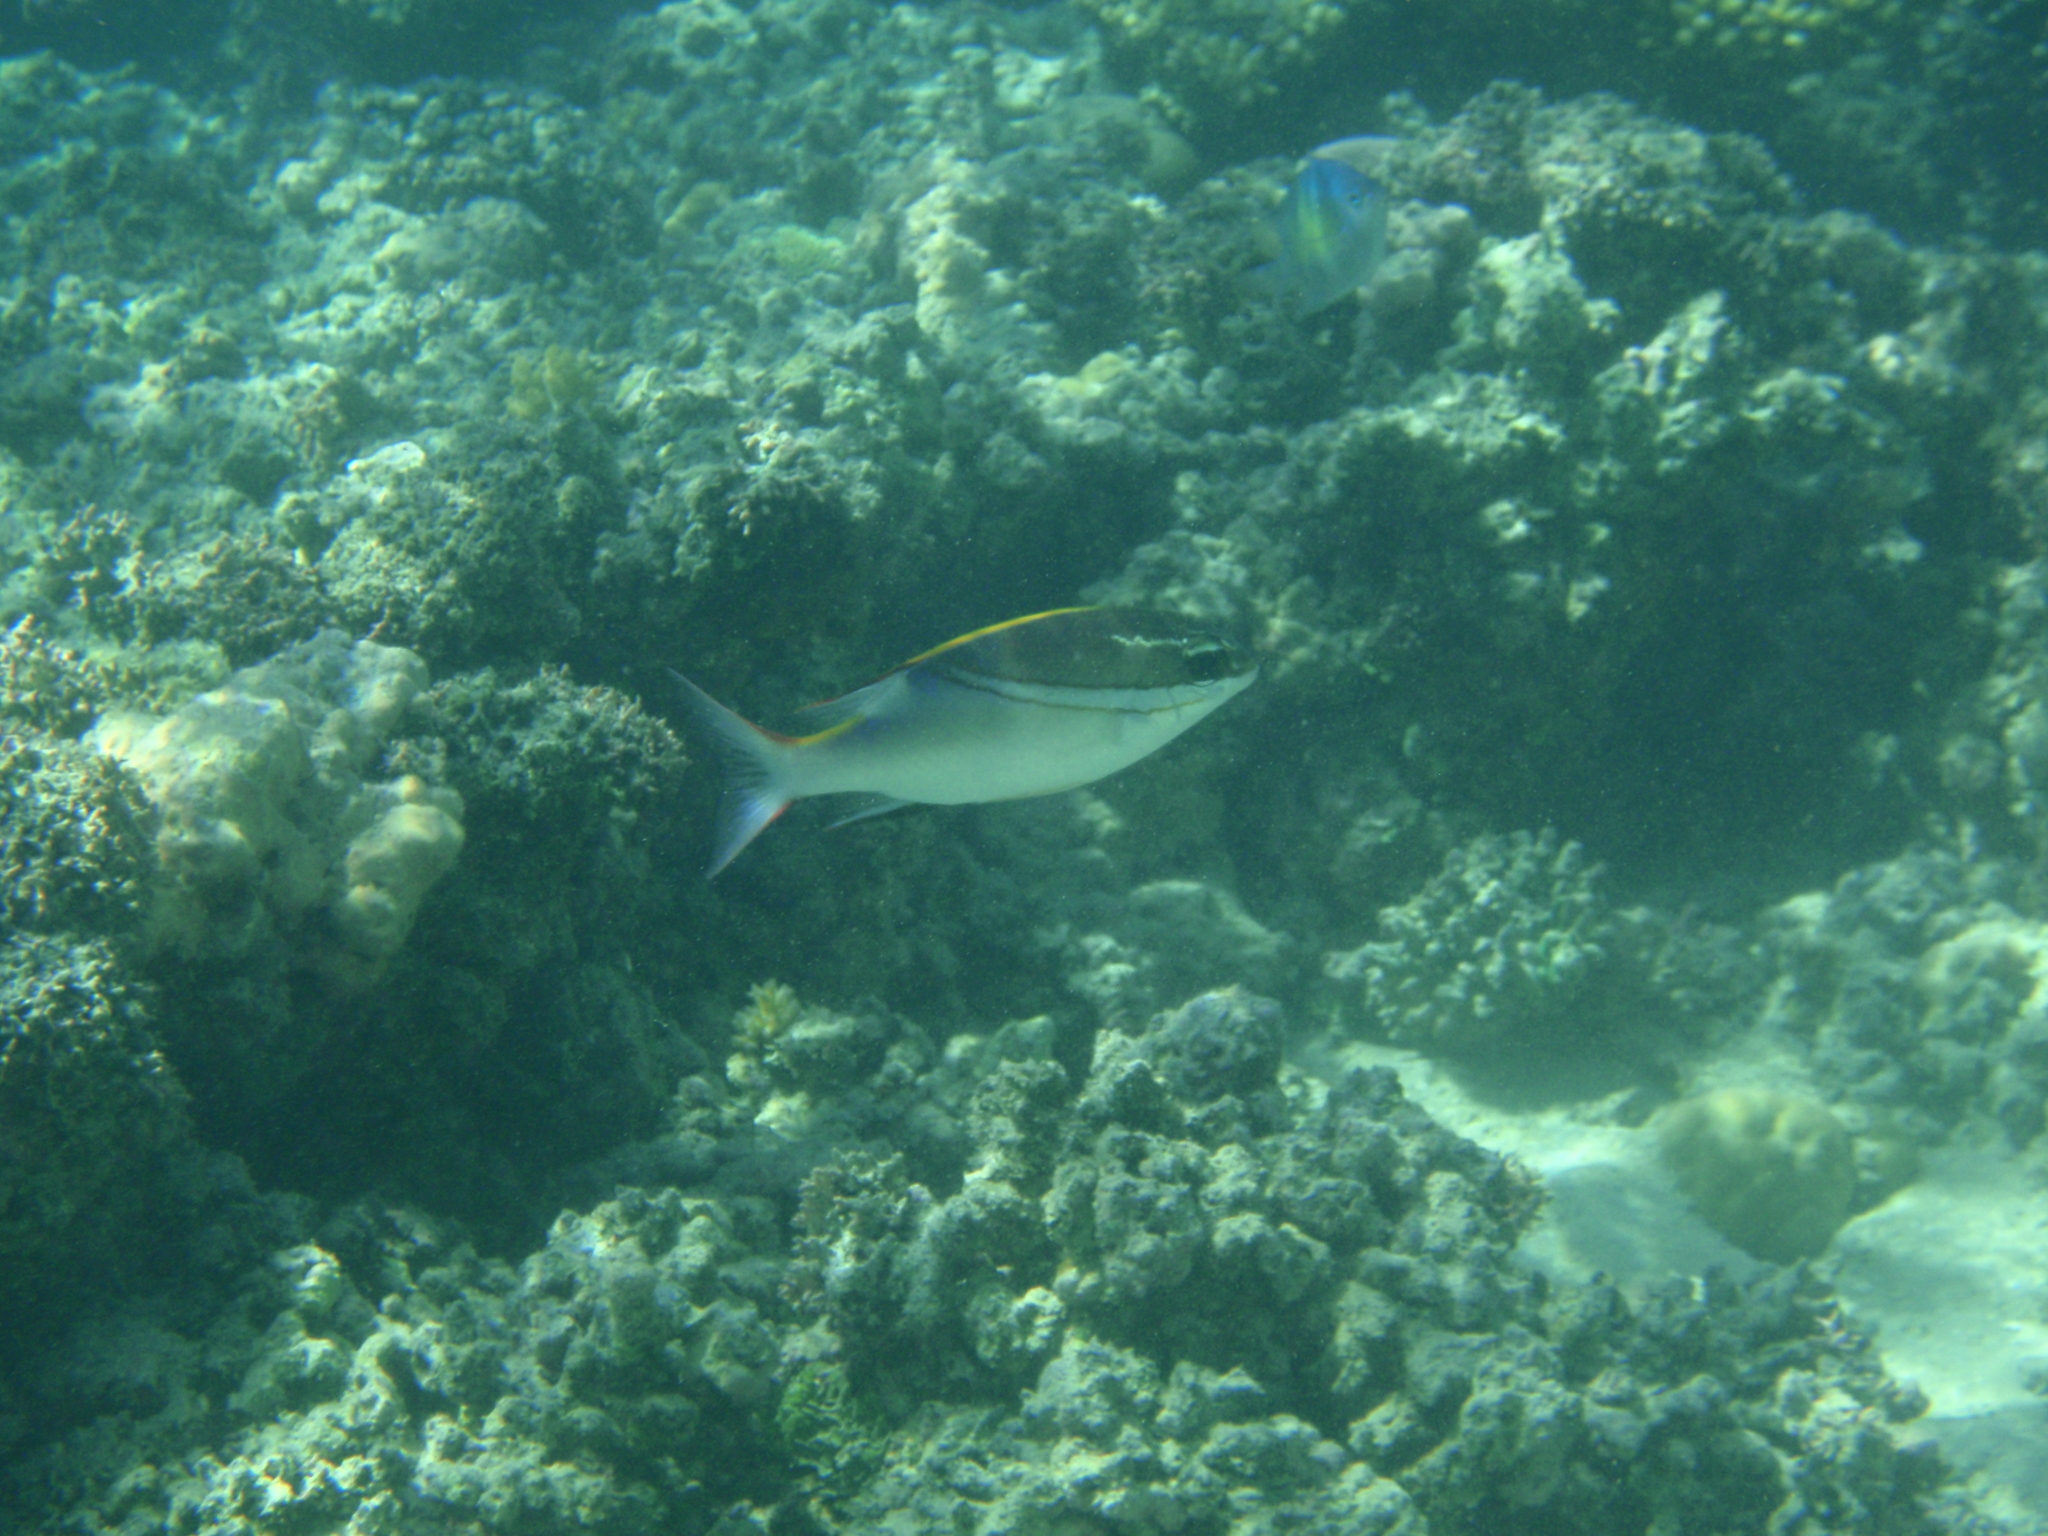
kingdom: Animalia
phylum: Chordata
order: Perciformes
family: Nemipteridae
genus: Scolopsis
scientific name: Scolopsis bilineata
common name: Two-lined monocle bream
